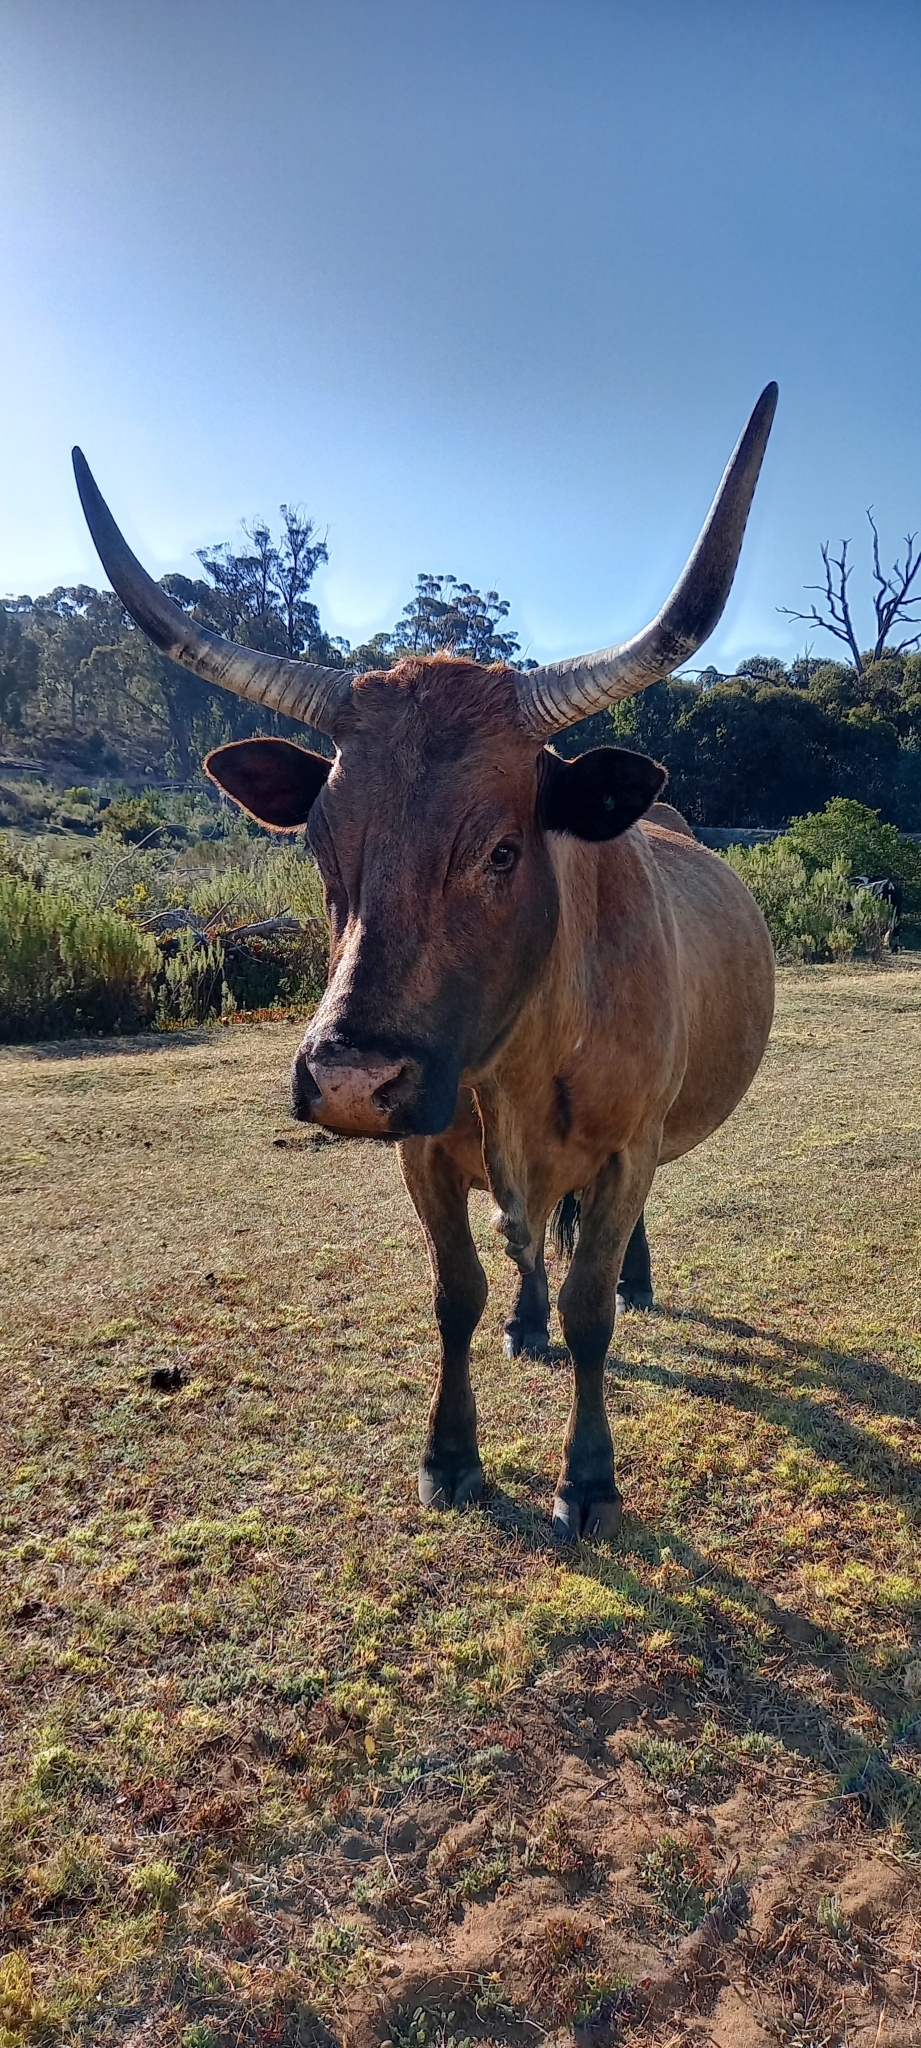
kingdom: Animalia
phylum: Chordata
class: Mammalia
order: Artiodactyla
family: Bovidae
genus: Bos
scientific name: Bos
